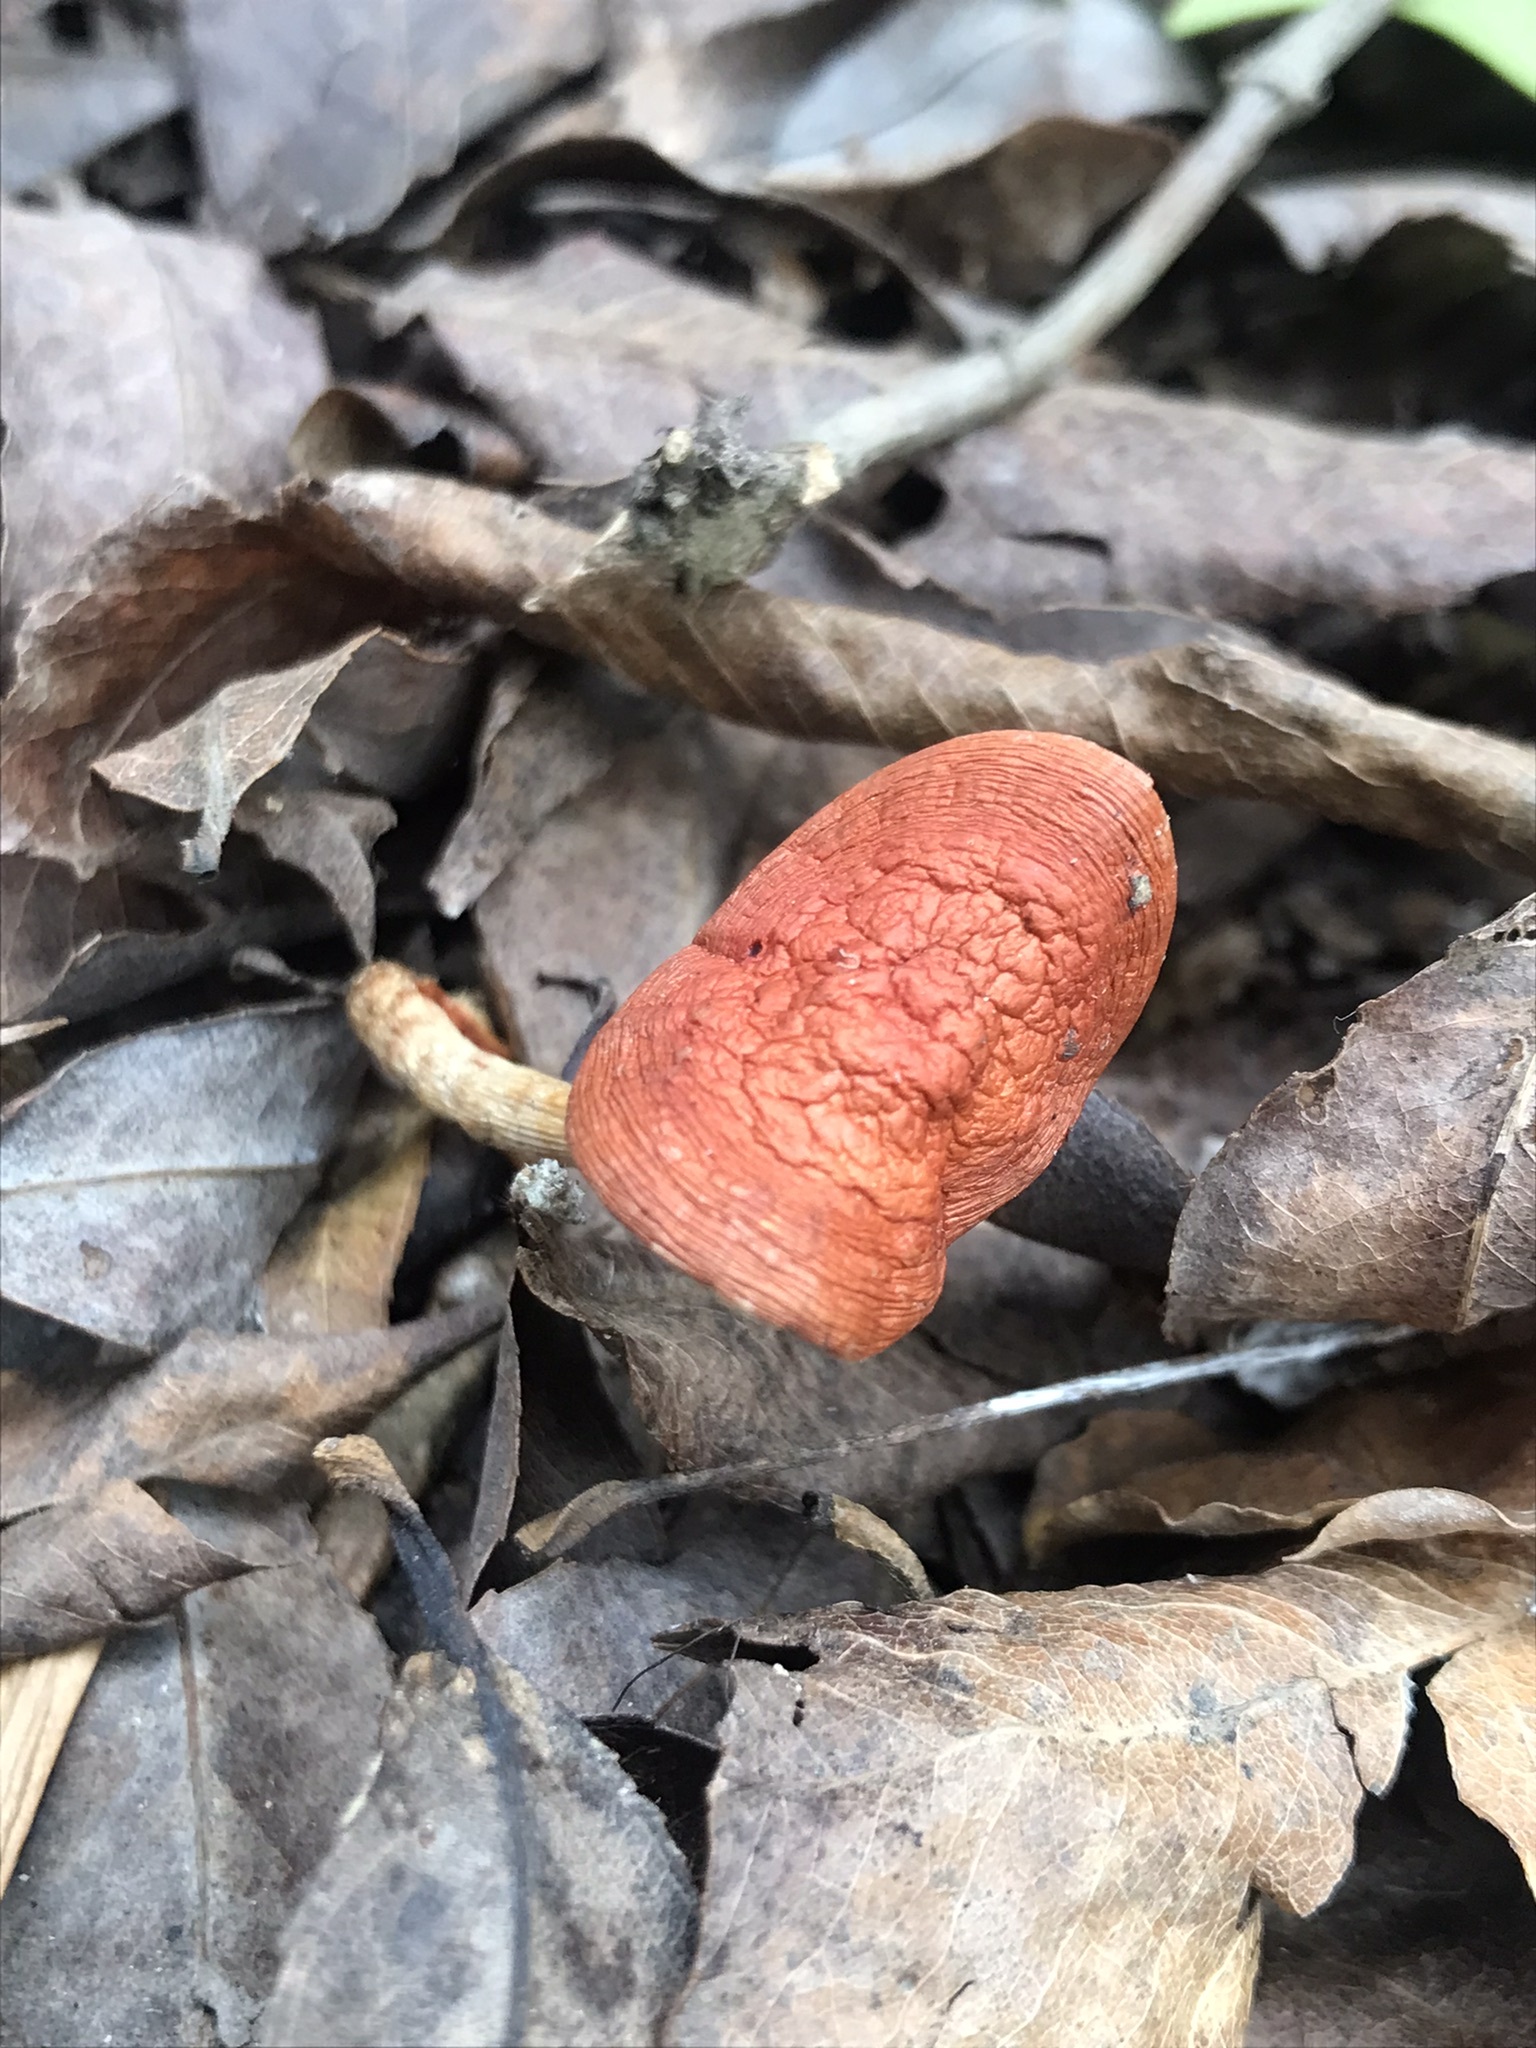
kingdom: Fungi
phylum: Basidiomycota
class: Agaricomycetes
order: Agaricales
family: Strophariaceae
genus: Leratiomyces
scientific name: Leratiomyces ceres
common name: Redlead roundhead
